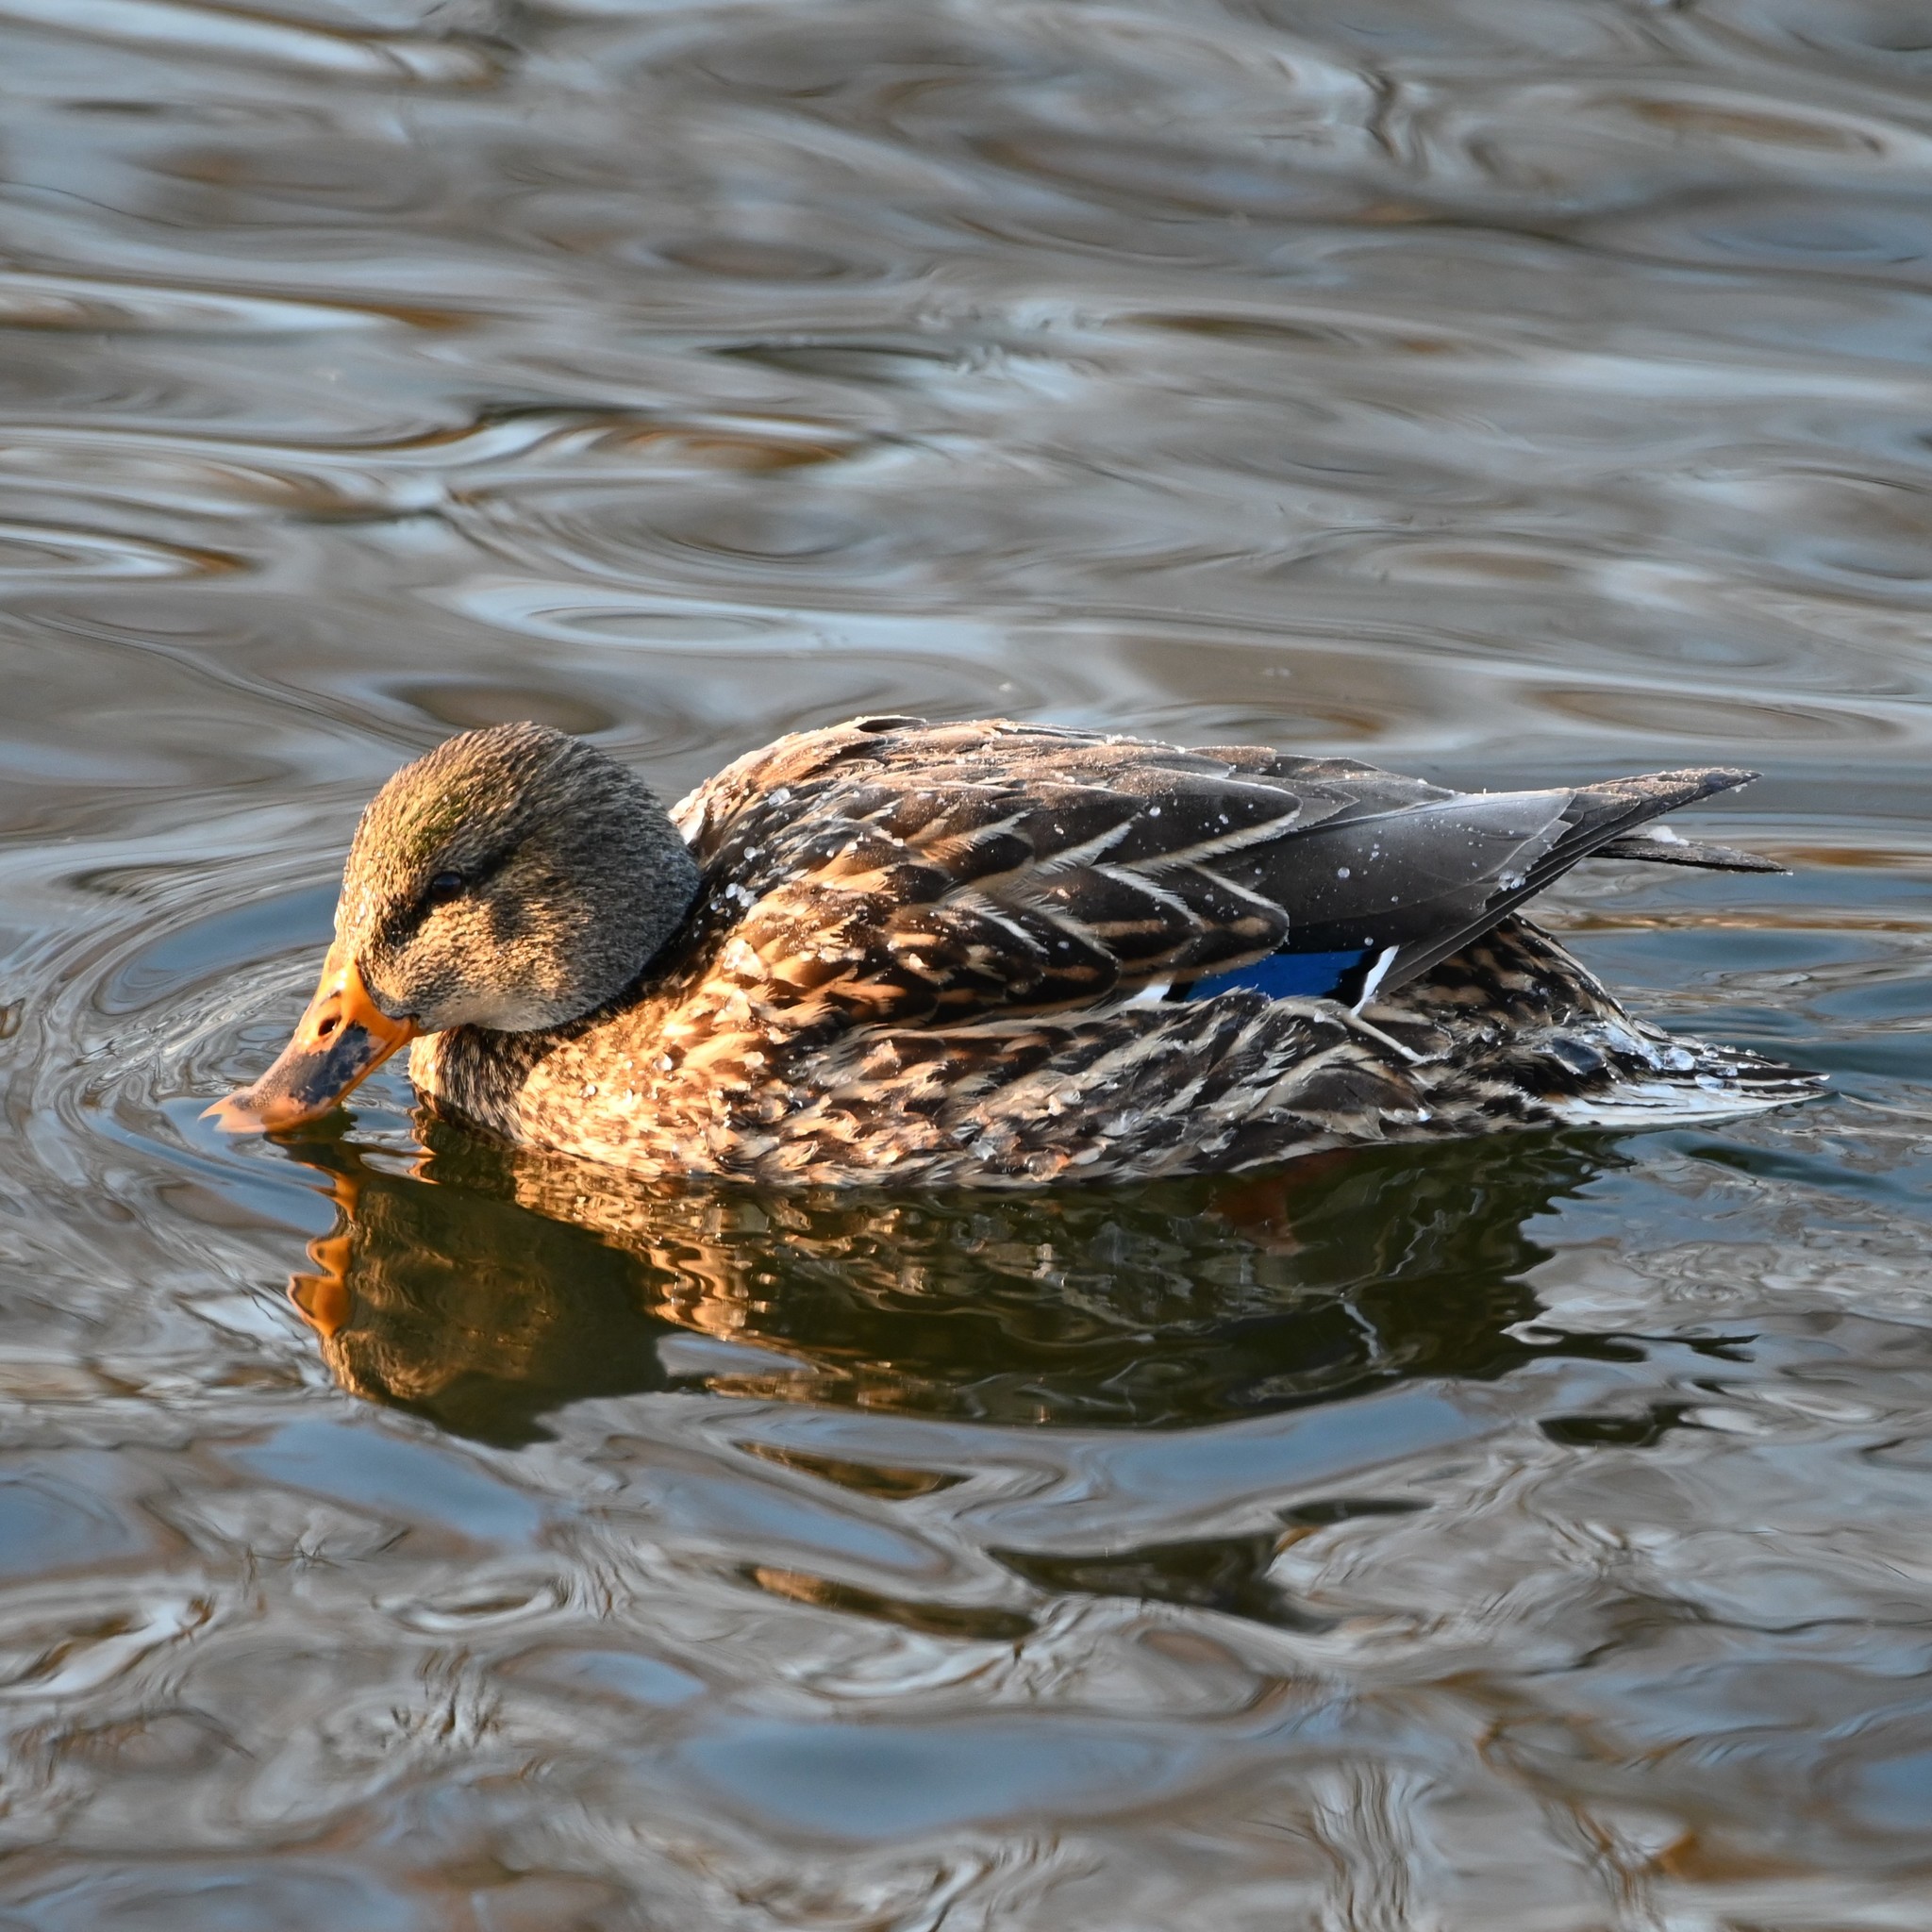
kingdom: Animalia
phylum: Chordata
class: Aves
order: Anseriformes
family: Anatidae
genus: Anas
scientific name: Anas platyrhynchos
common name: Mallard
